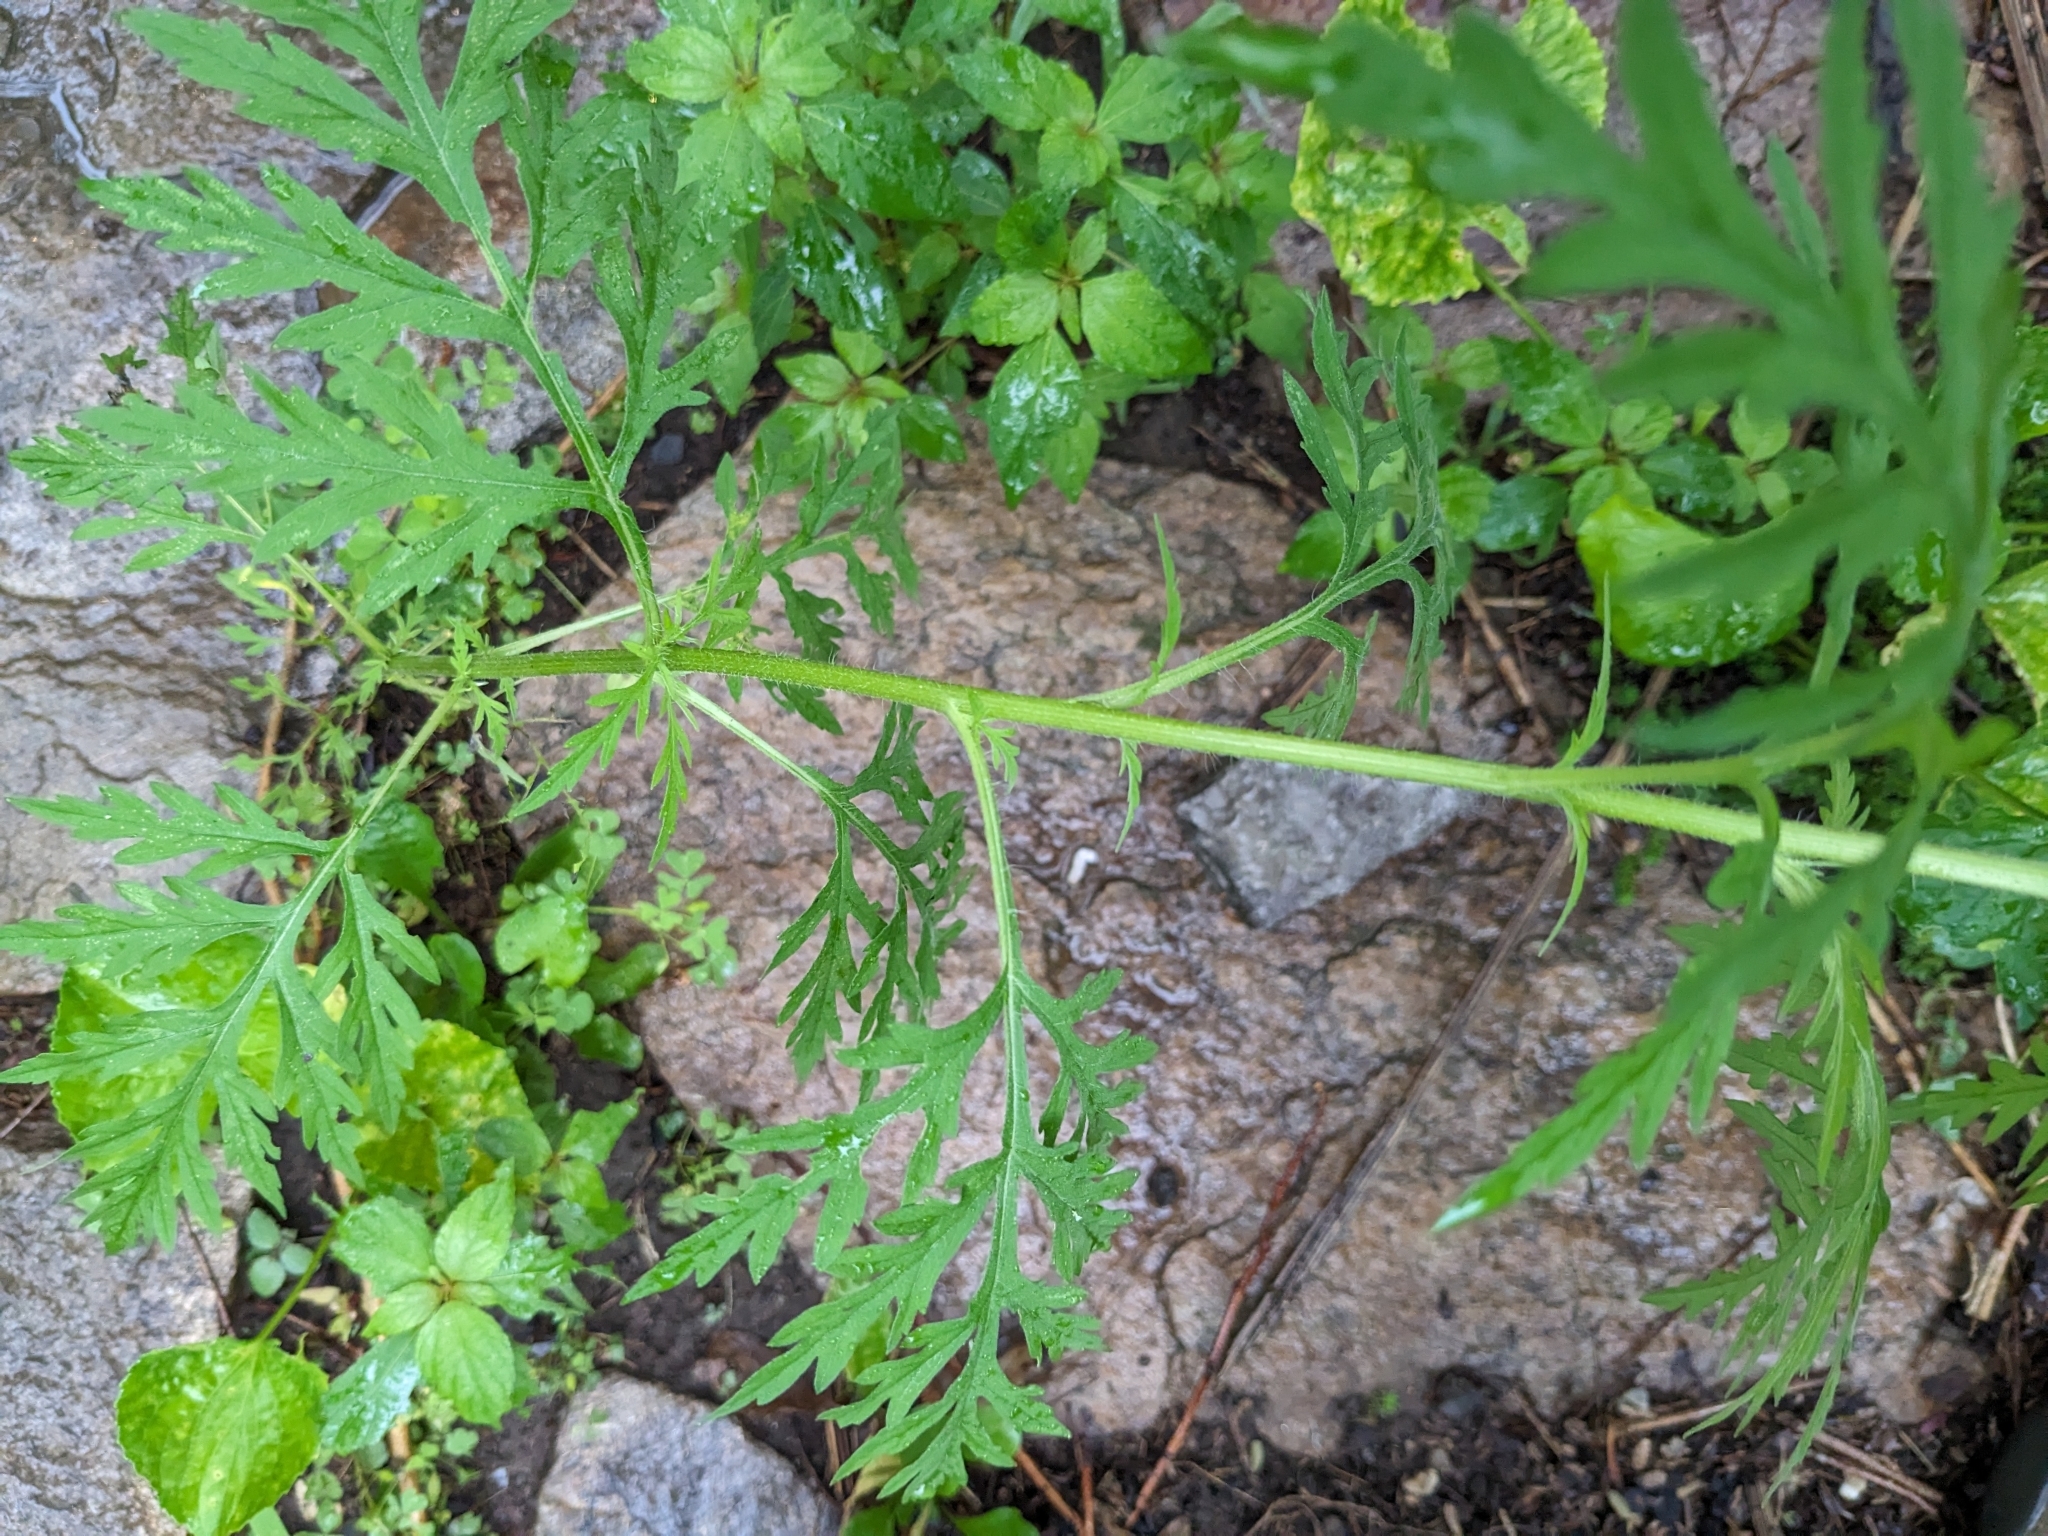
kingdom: Plantae
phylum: Tracheophyta
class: Magnoliopsida
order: Asterales
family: Asteraceae
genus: Ambrosia
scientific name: Ambrosia artemisiifolia
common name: Annual ragweed
